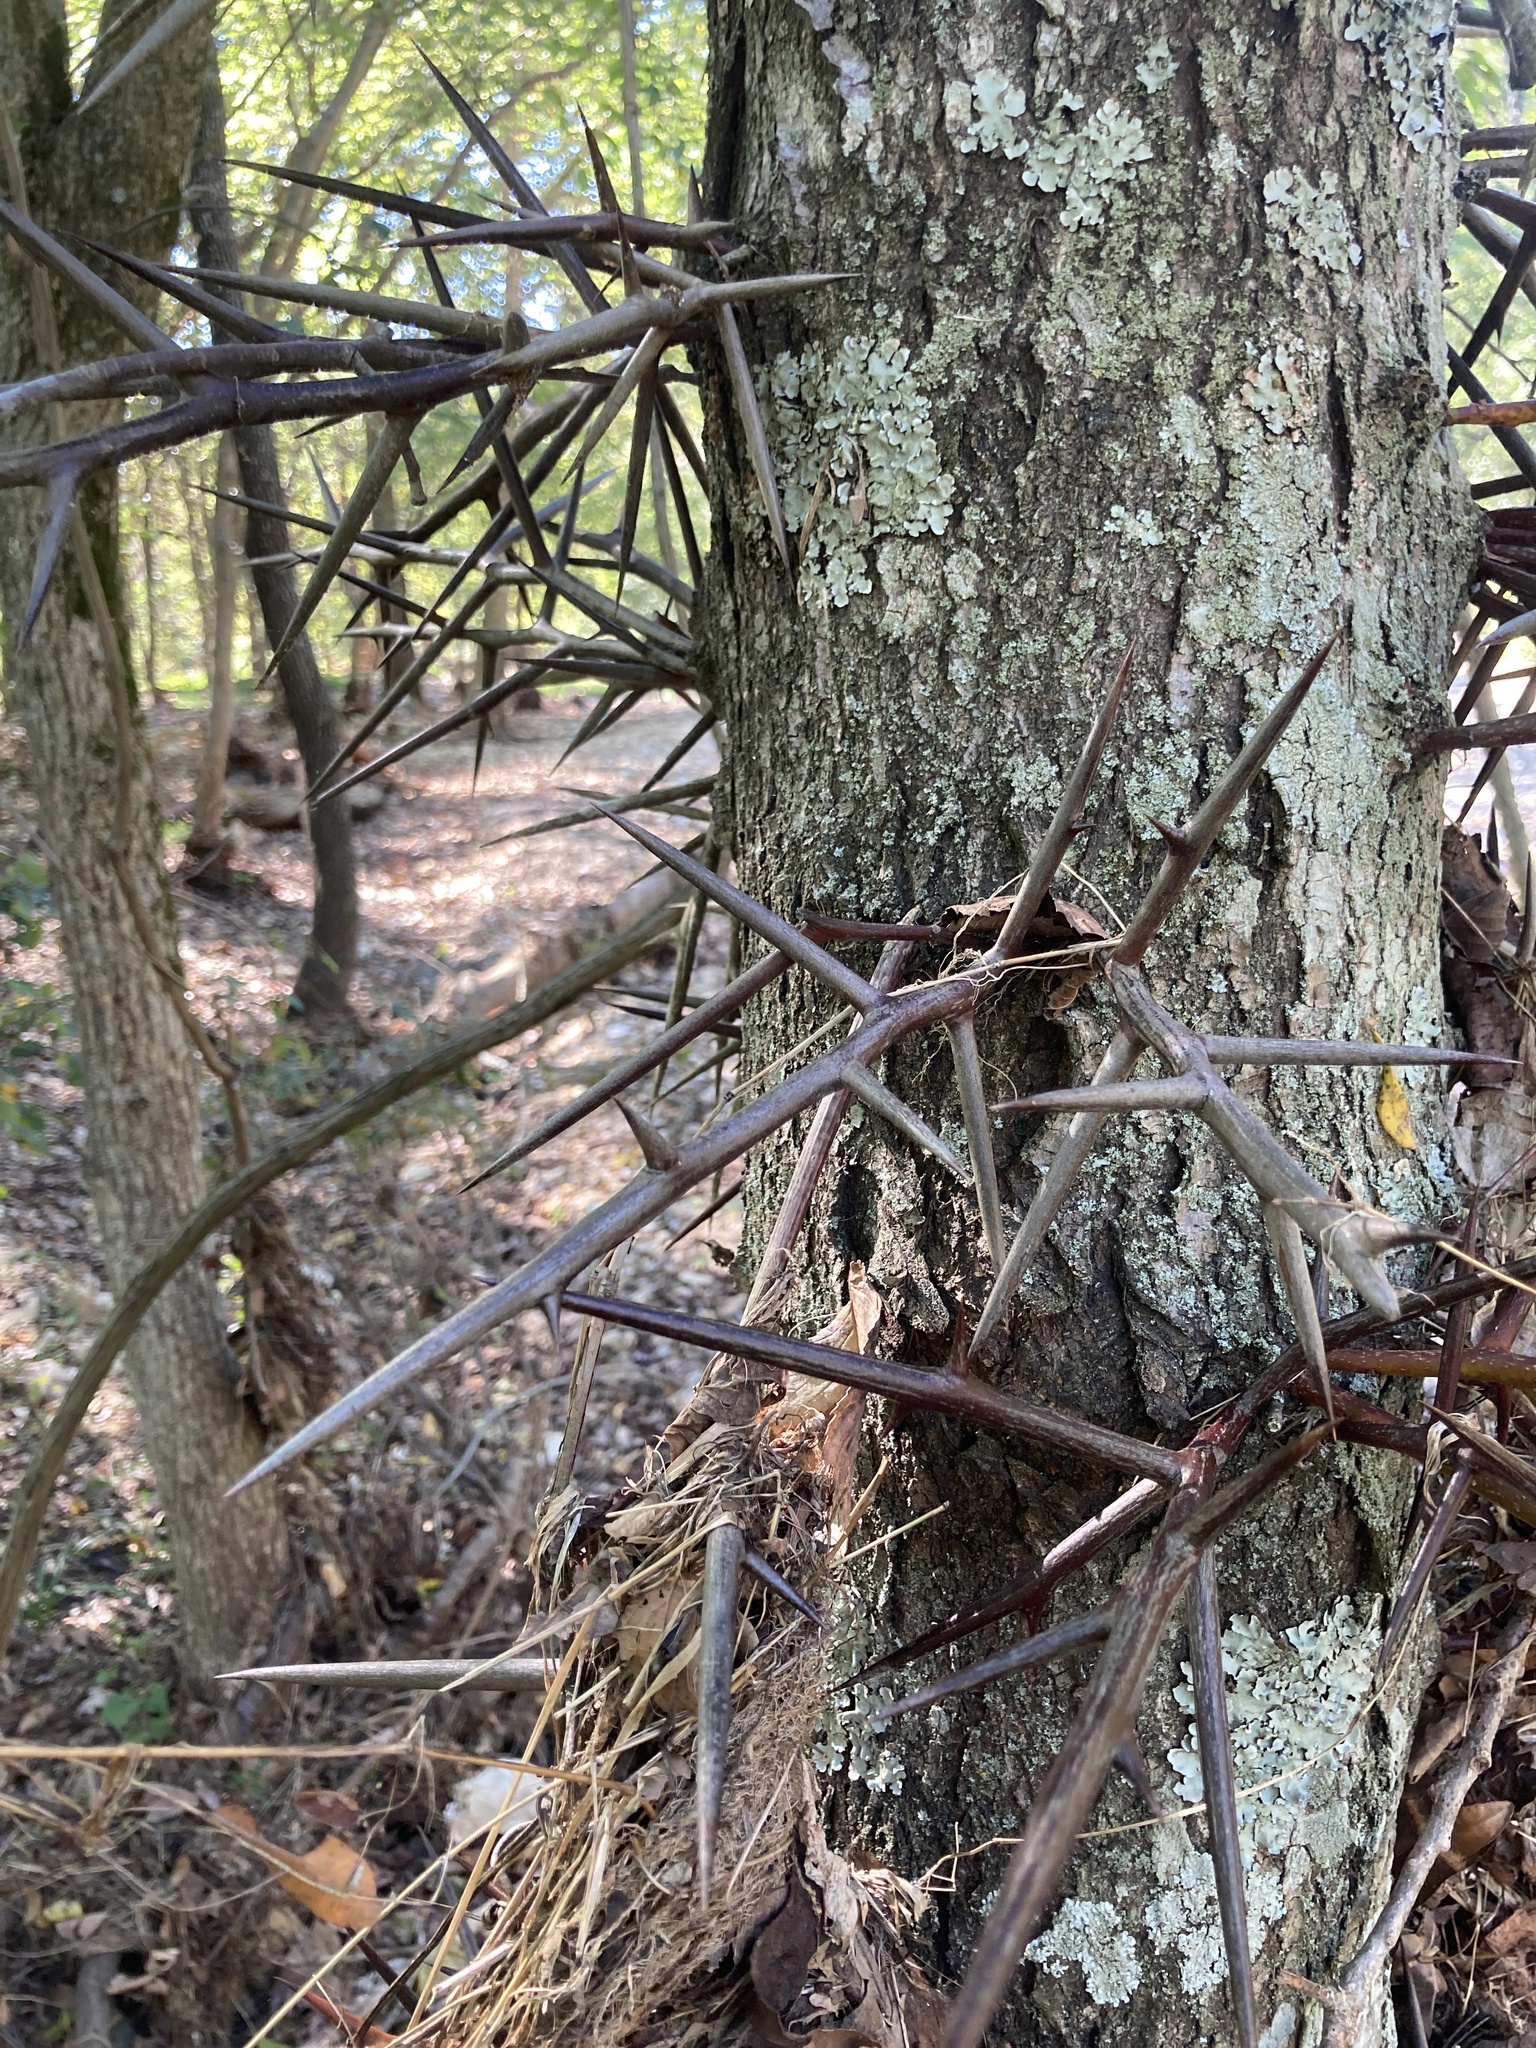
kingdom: Plantae
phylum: Tracheophyta
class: Magnoliopsida
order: Fabales
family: Fabaceae
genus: Gleditsia
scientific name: Gleditsia triacanthos
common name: Common honeylocust
